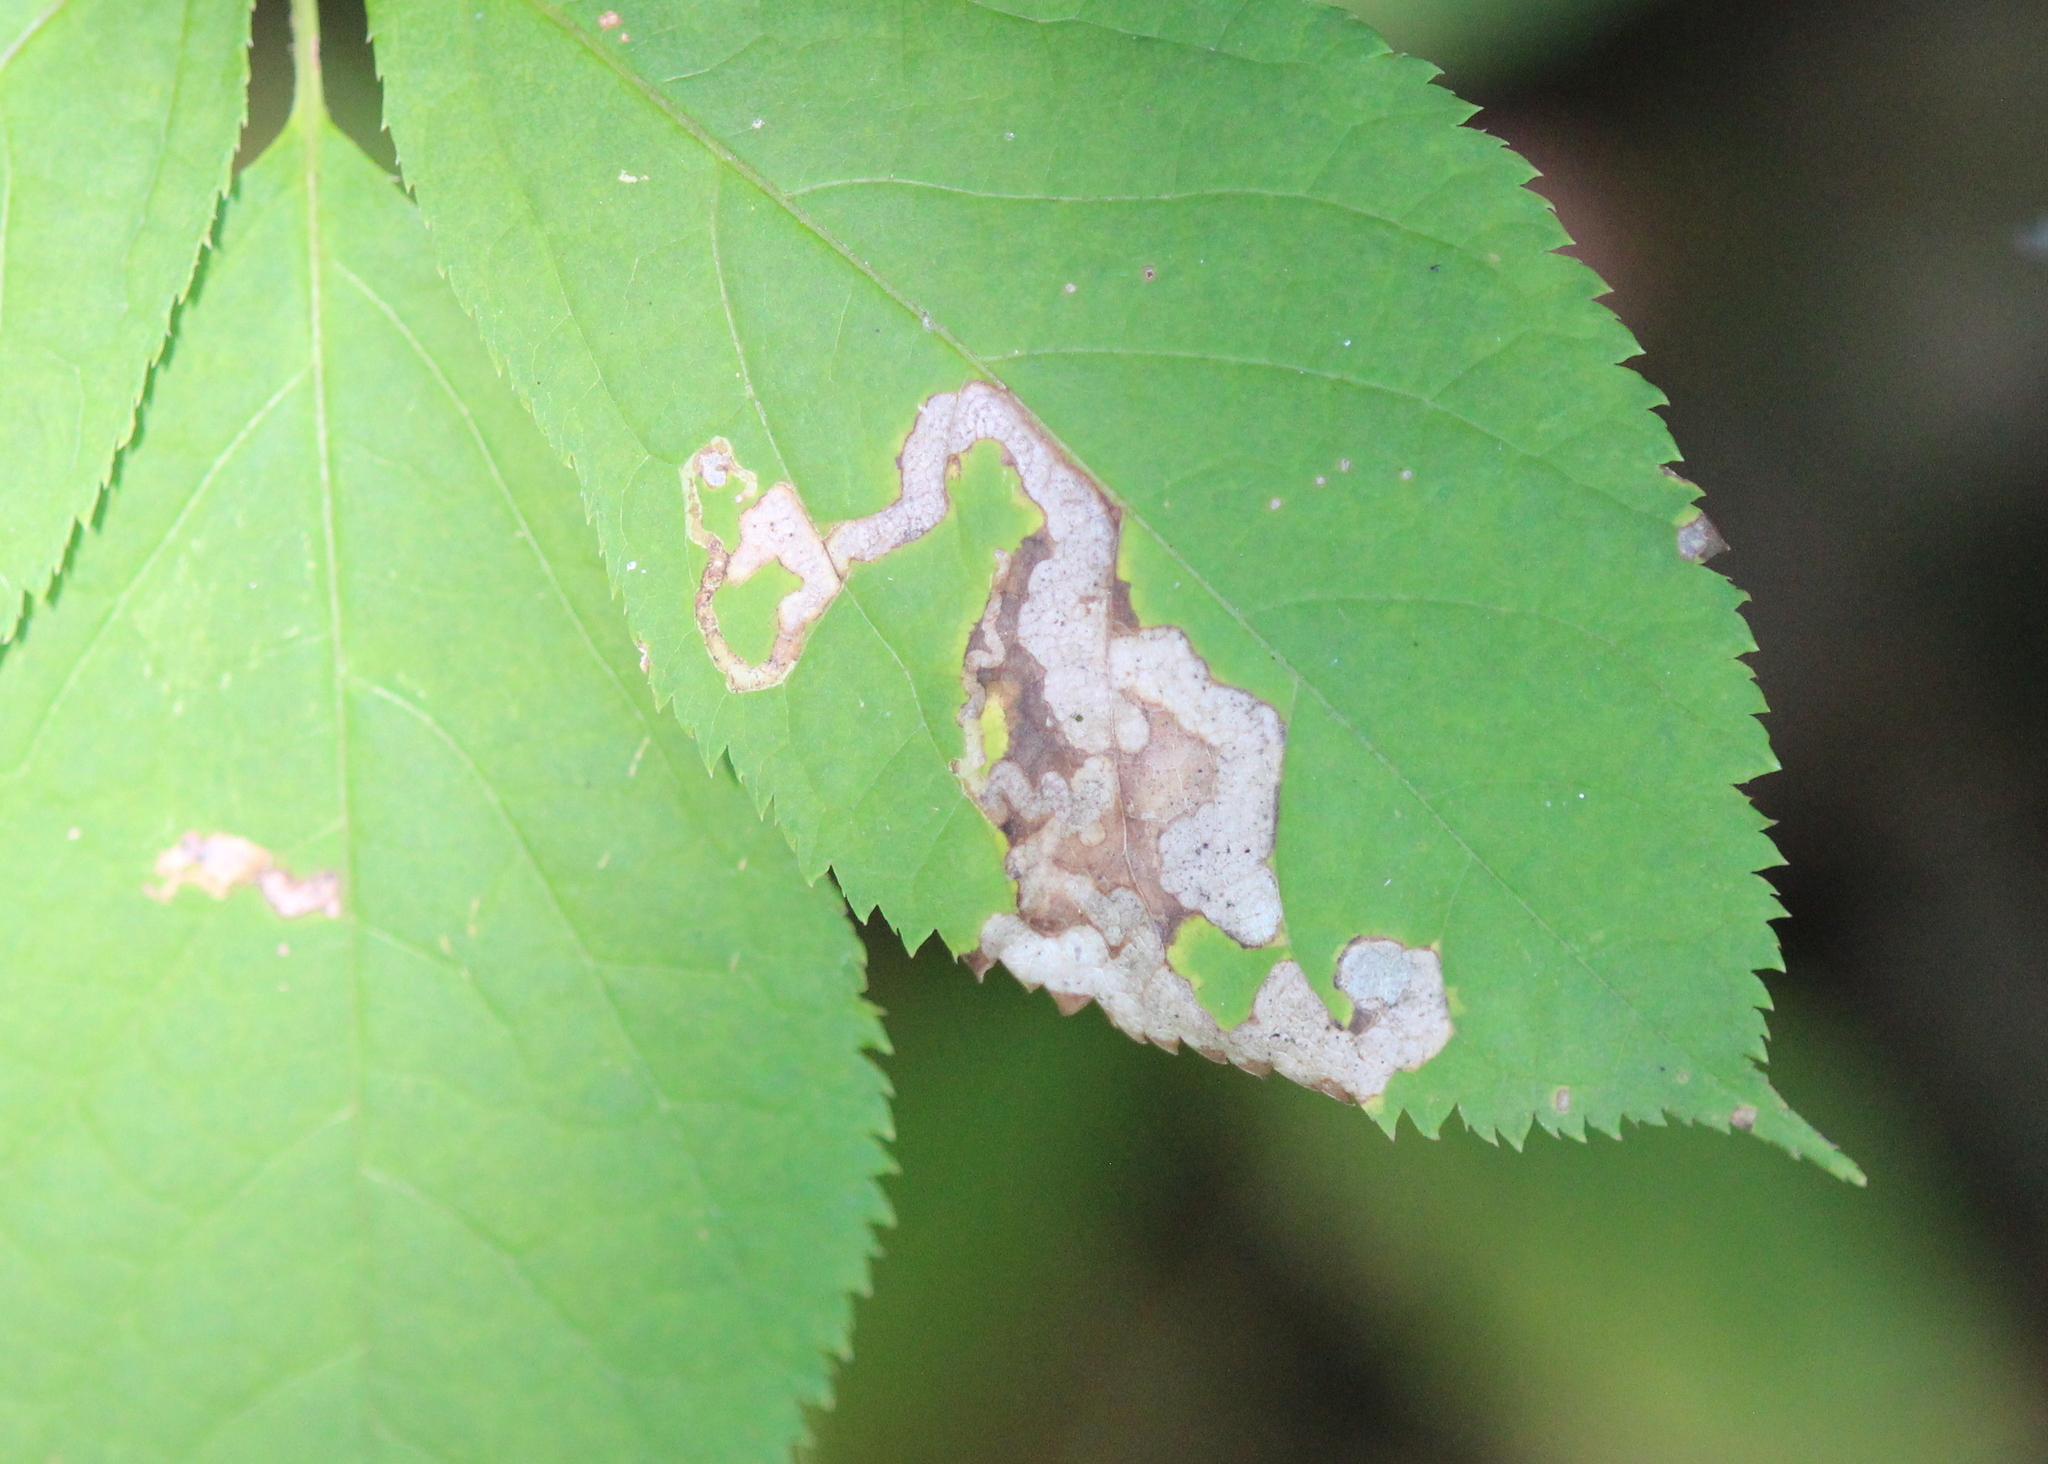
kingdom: Animalia
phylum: Arthropoda
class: Insecta
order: Diptera
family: Agromyzidae
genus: Phytomyza
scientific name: Phytomyza aralivora
